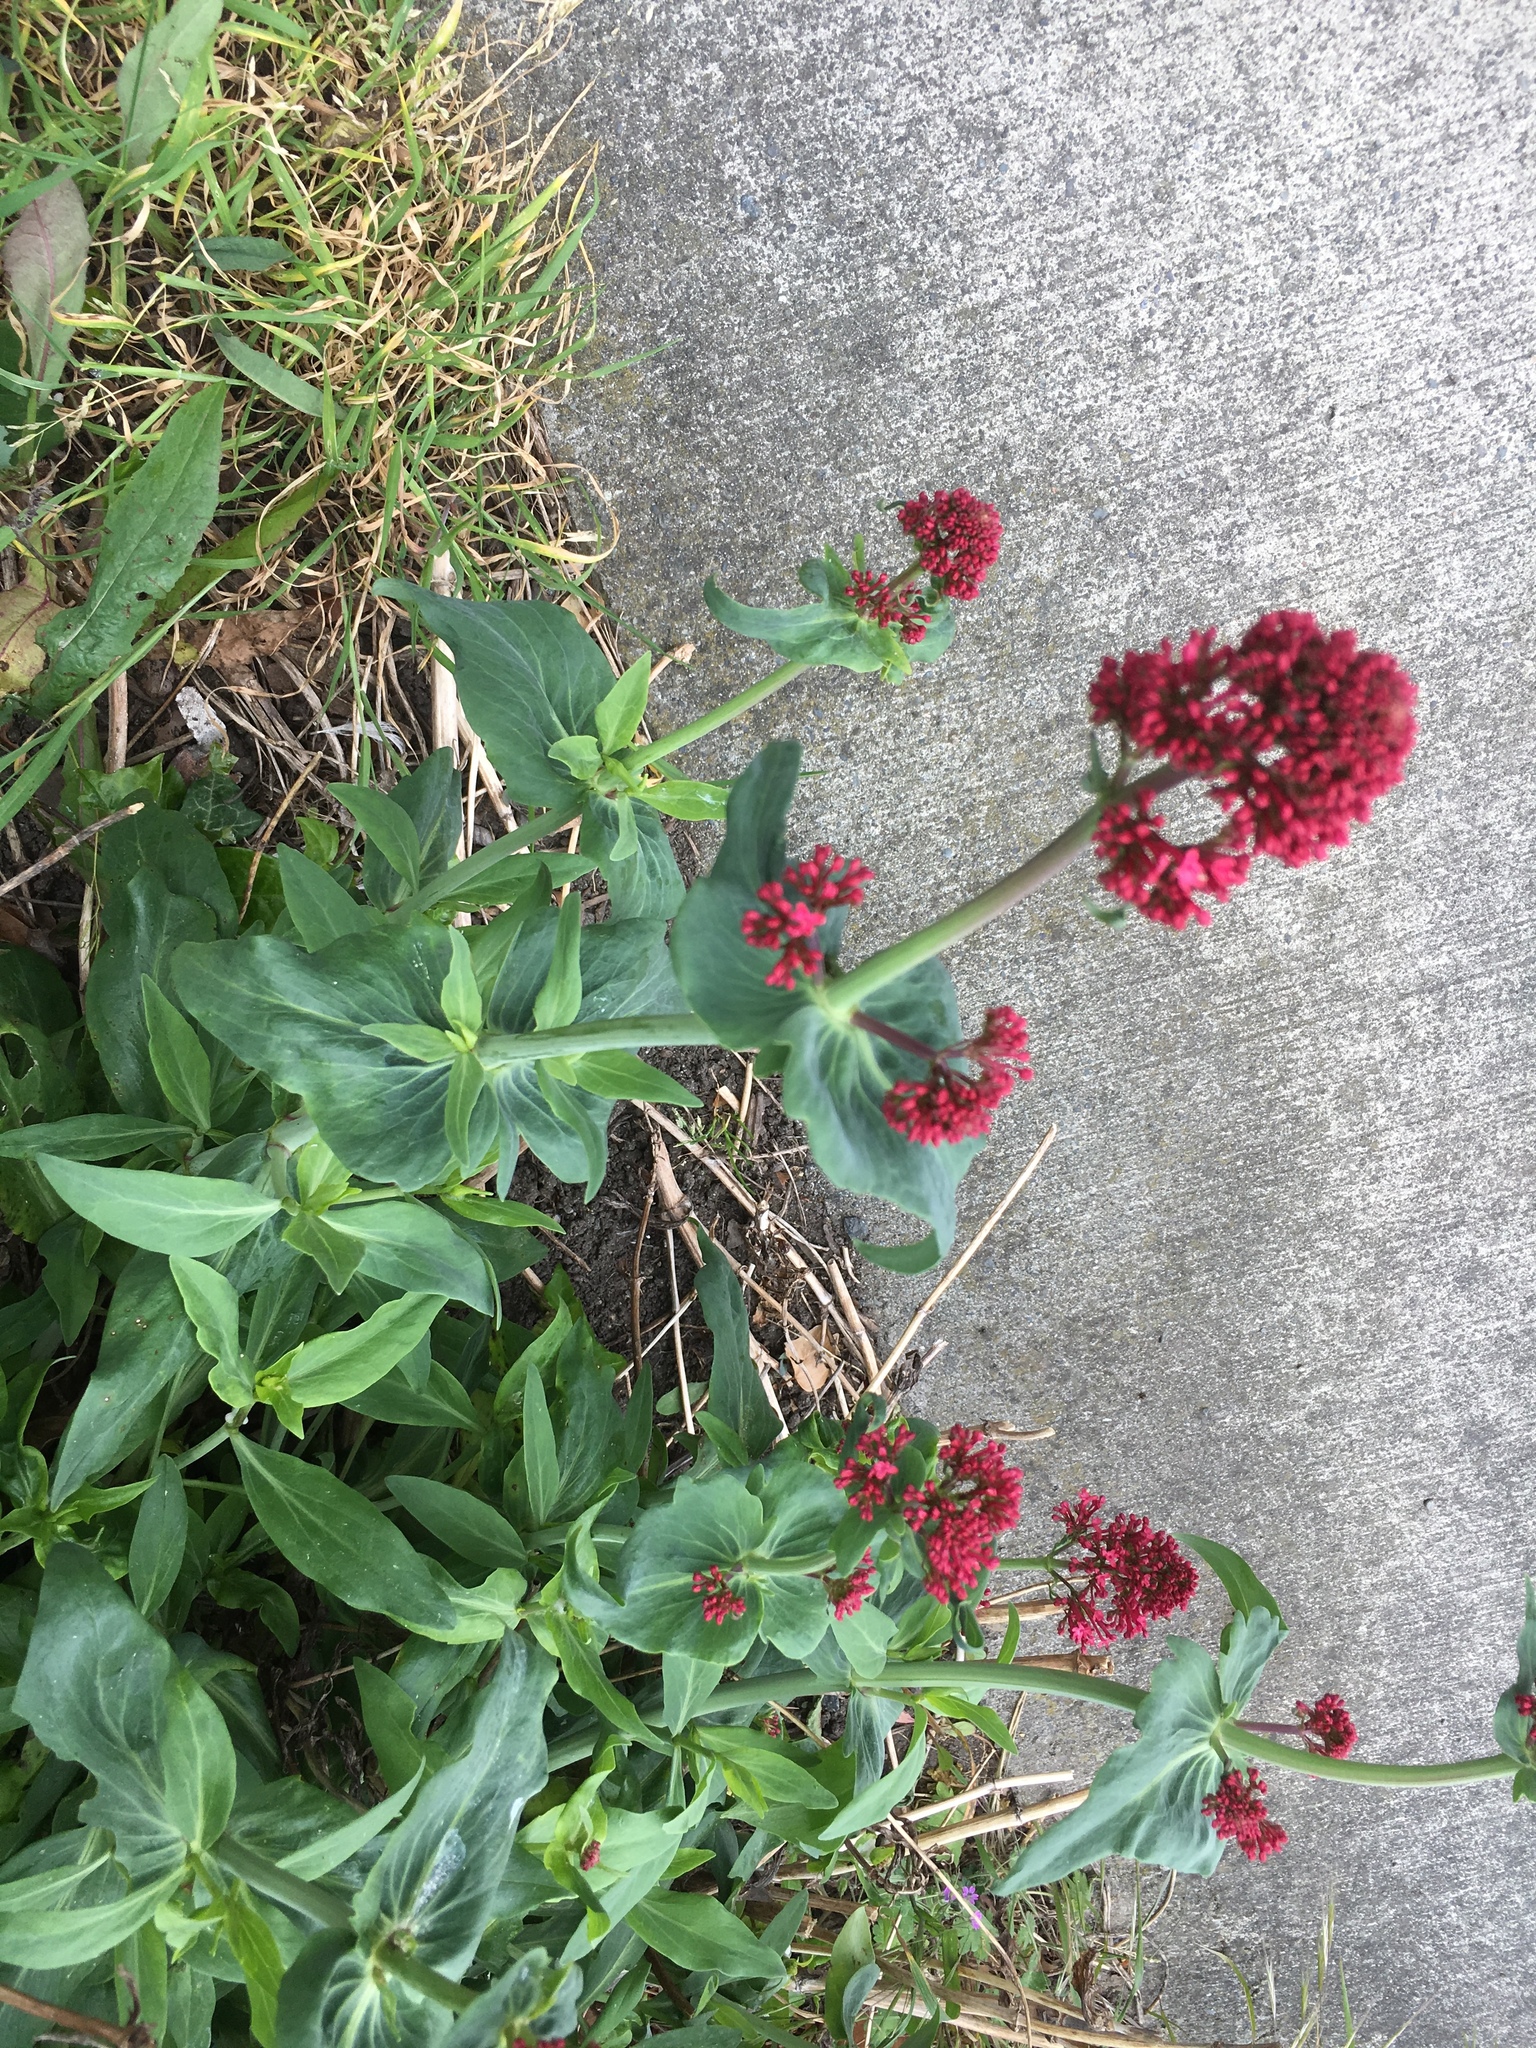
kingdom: Plantae
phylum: Tracheophyta
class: Magnoliopsida
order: Dipsacales
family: Caprifoliaceae
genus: Centranthus
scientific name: Centranthus ruber
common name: Red valerian
